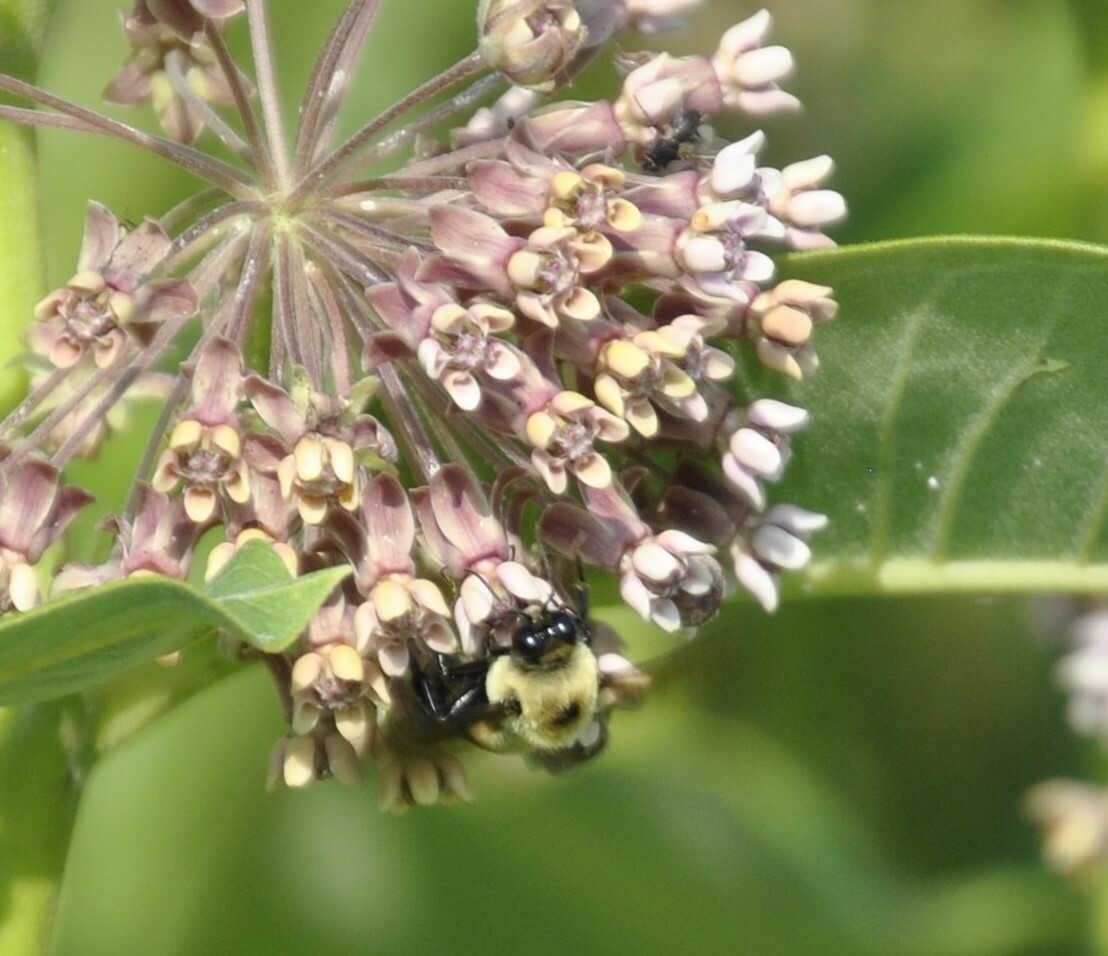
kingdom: Animalia
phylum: Arthropoda
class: Insecta
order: Hymenoptera
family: Apidae
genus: Bombus
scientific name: Bombus griseocollis
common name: Brown-belted bumble bee
